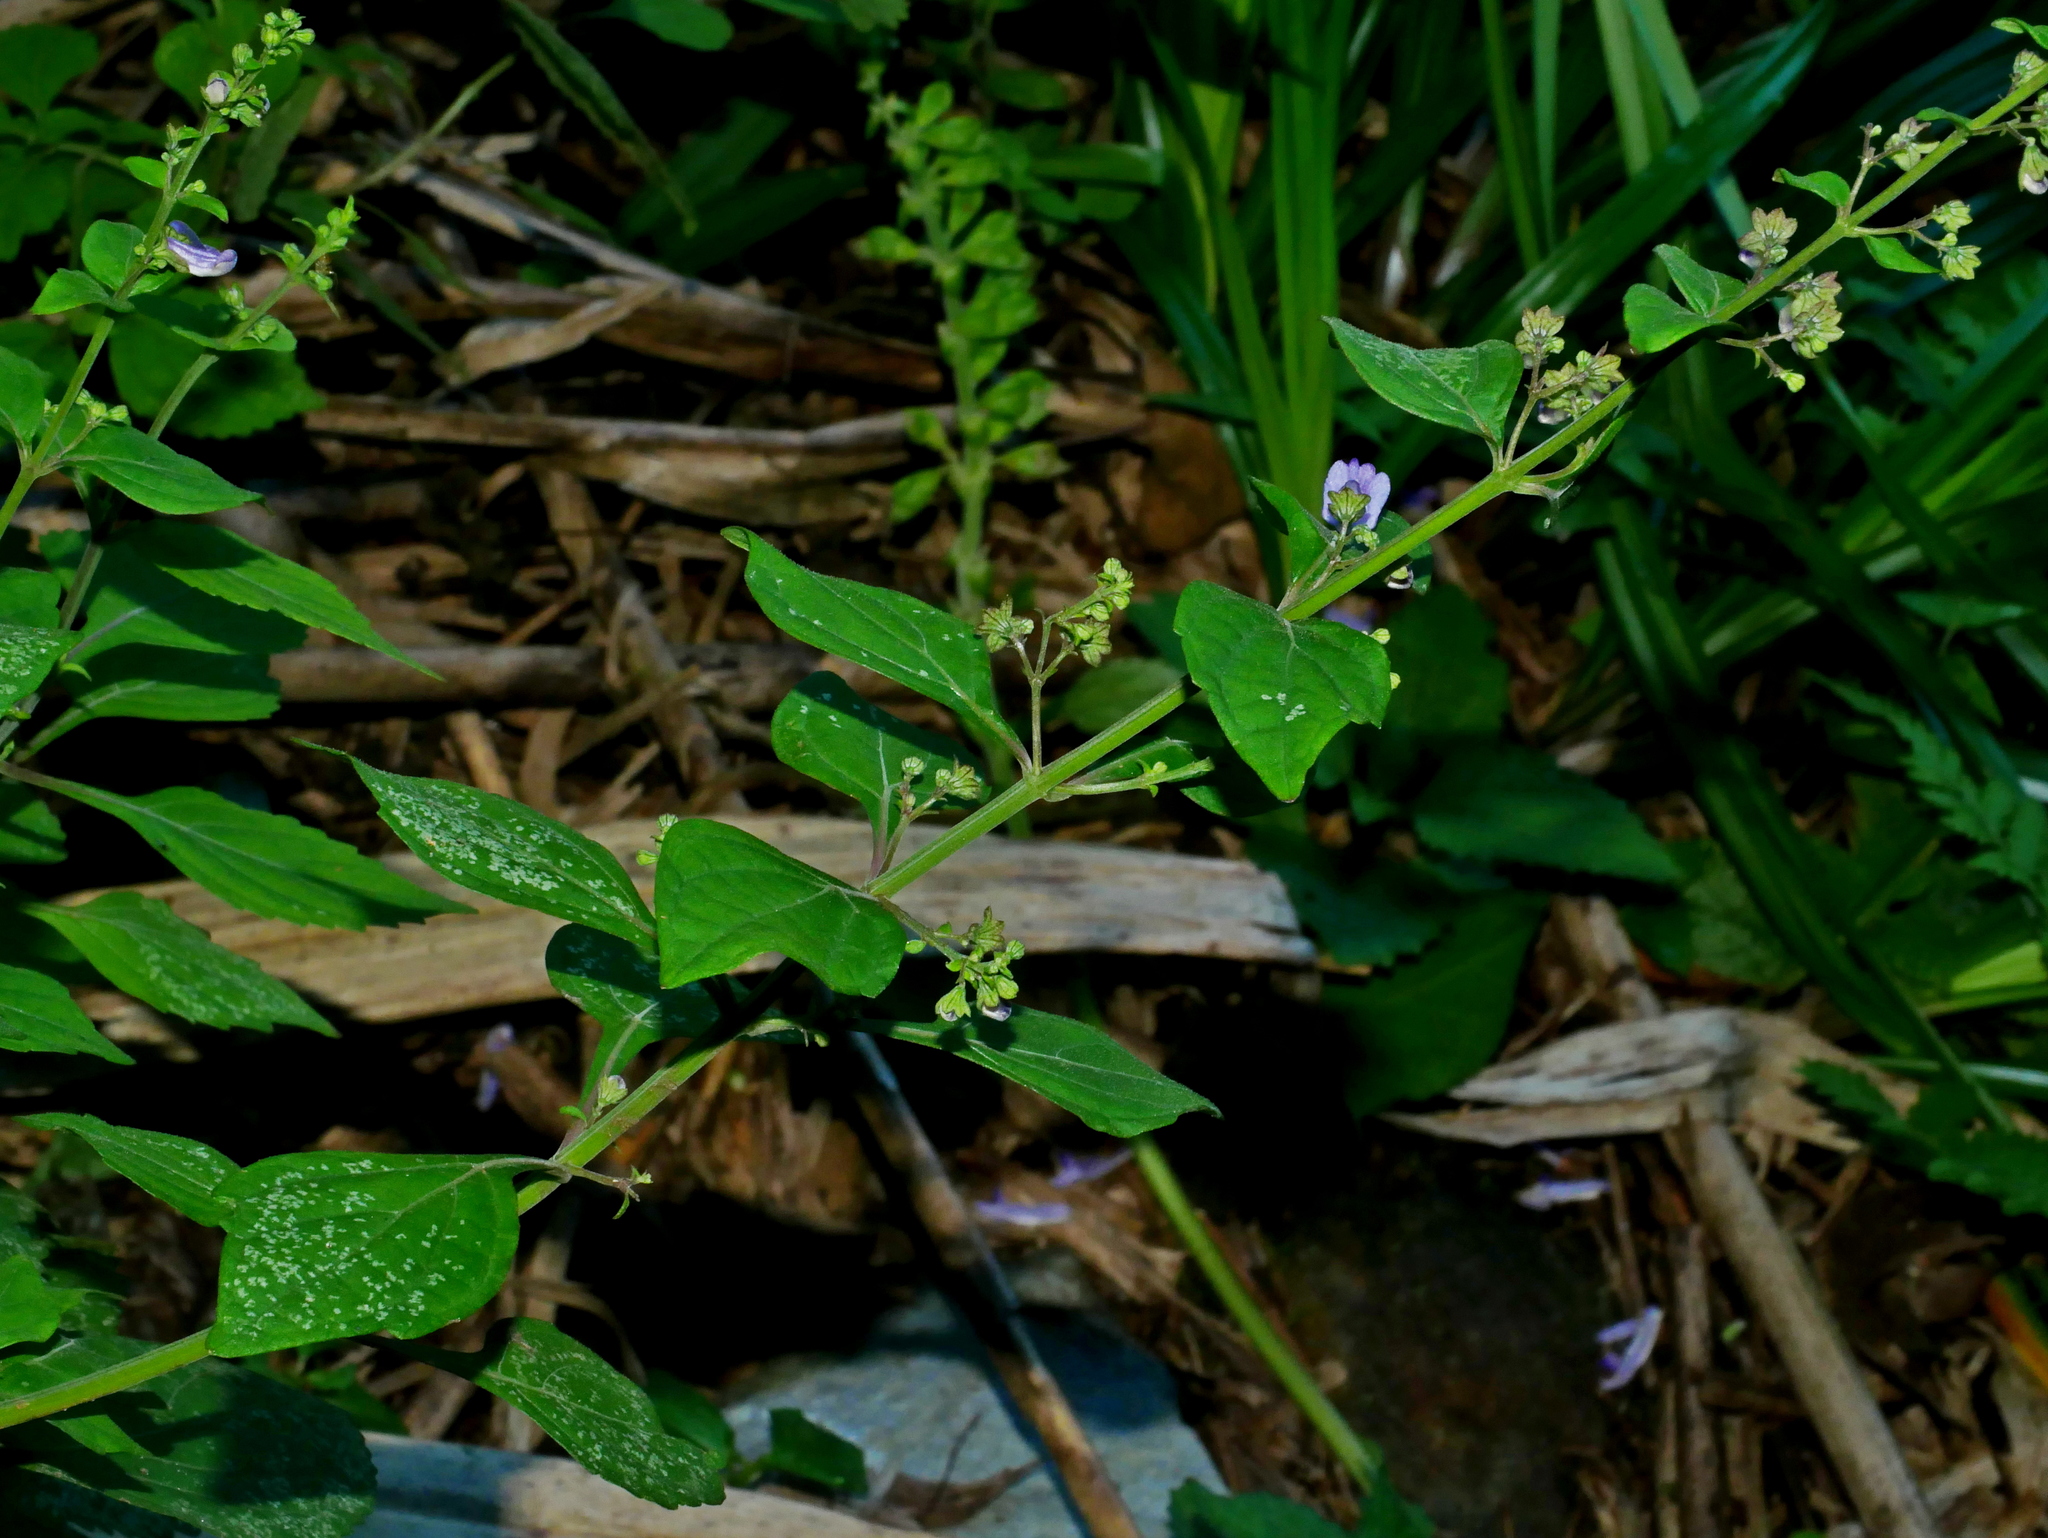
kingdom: Plantae
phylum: Tracheophyta
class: Magnoliopsida
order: Lamiales
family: Lamiaceae
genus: Isodon
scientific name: Isodon macrocalyx
